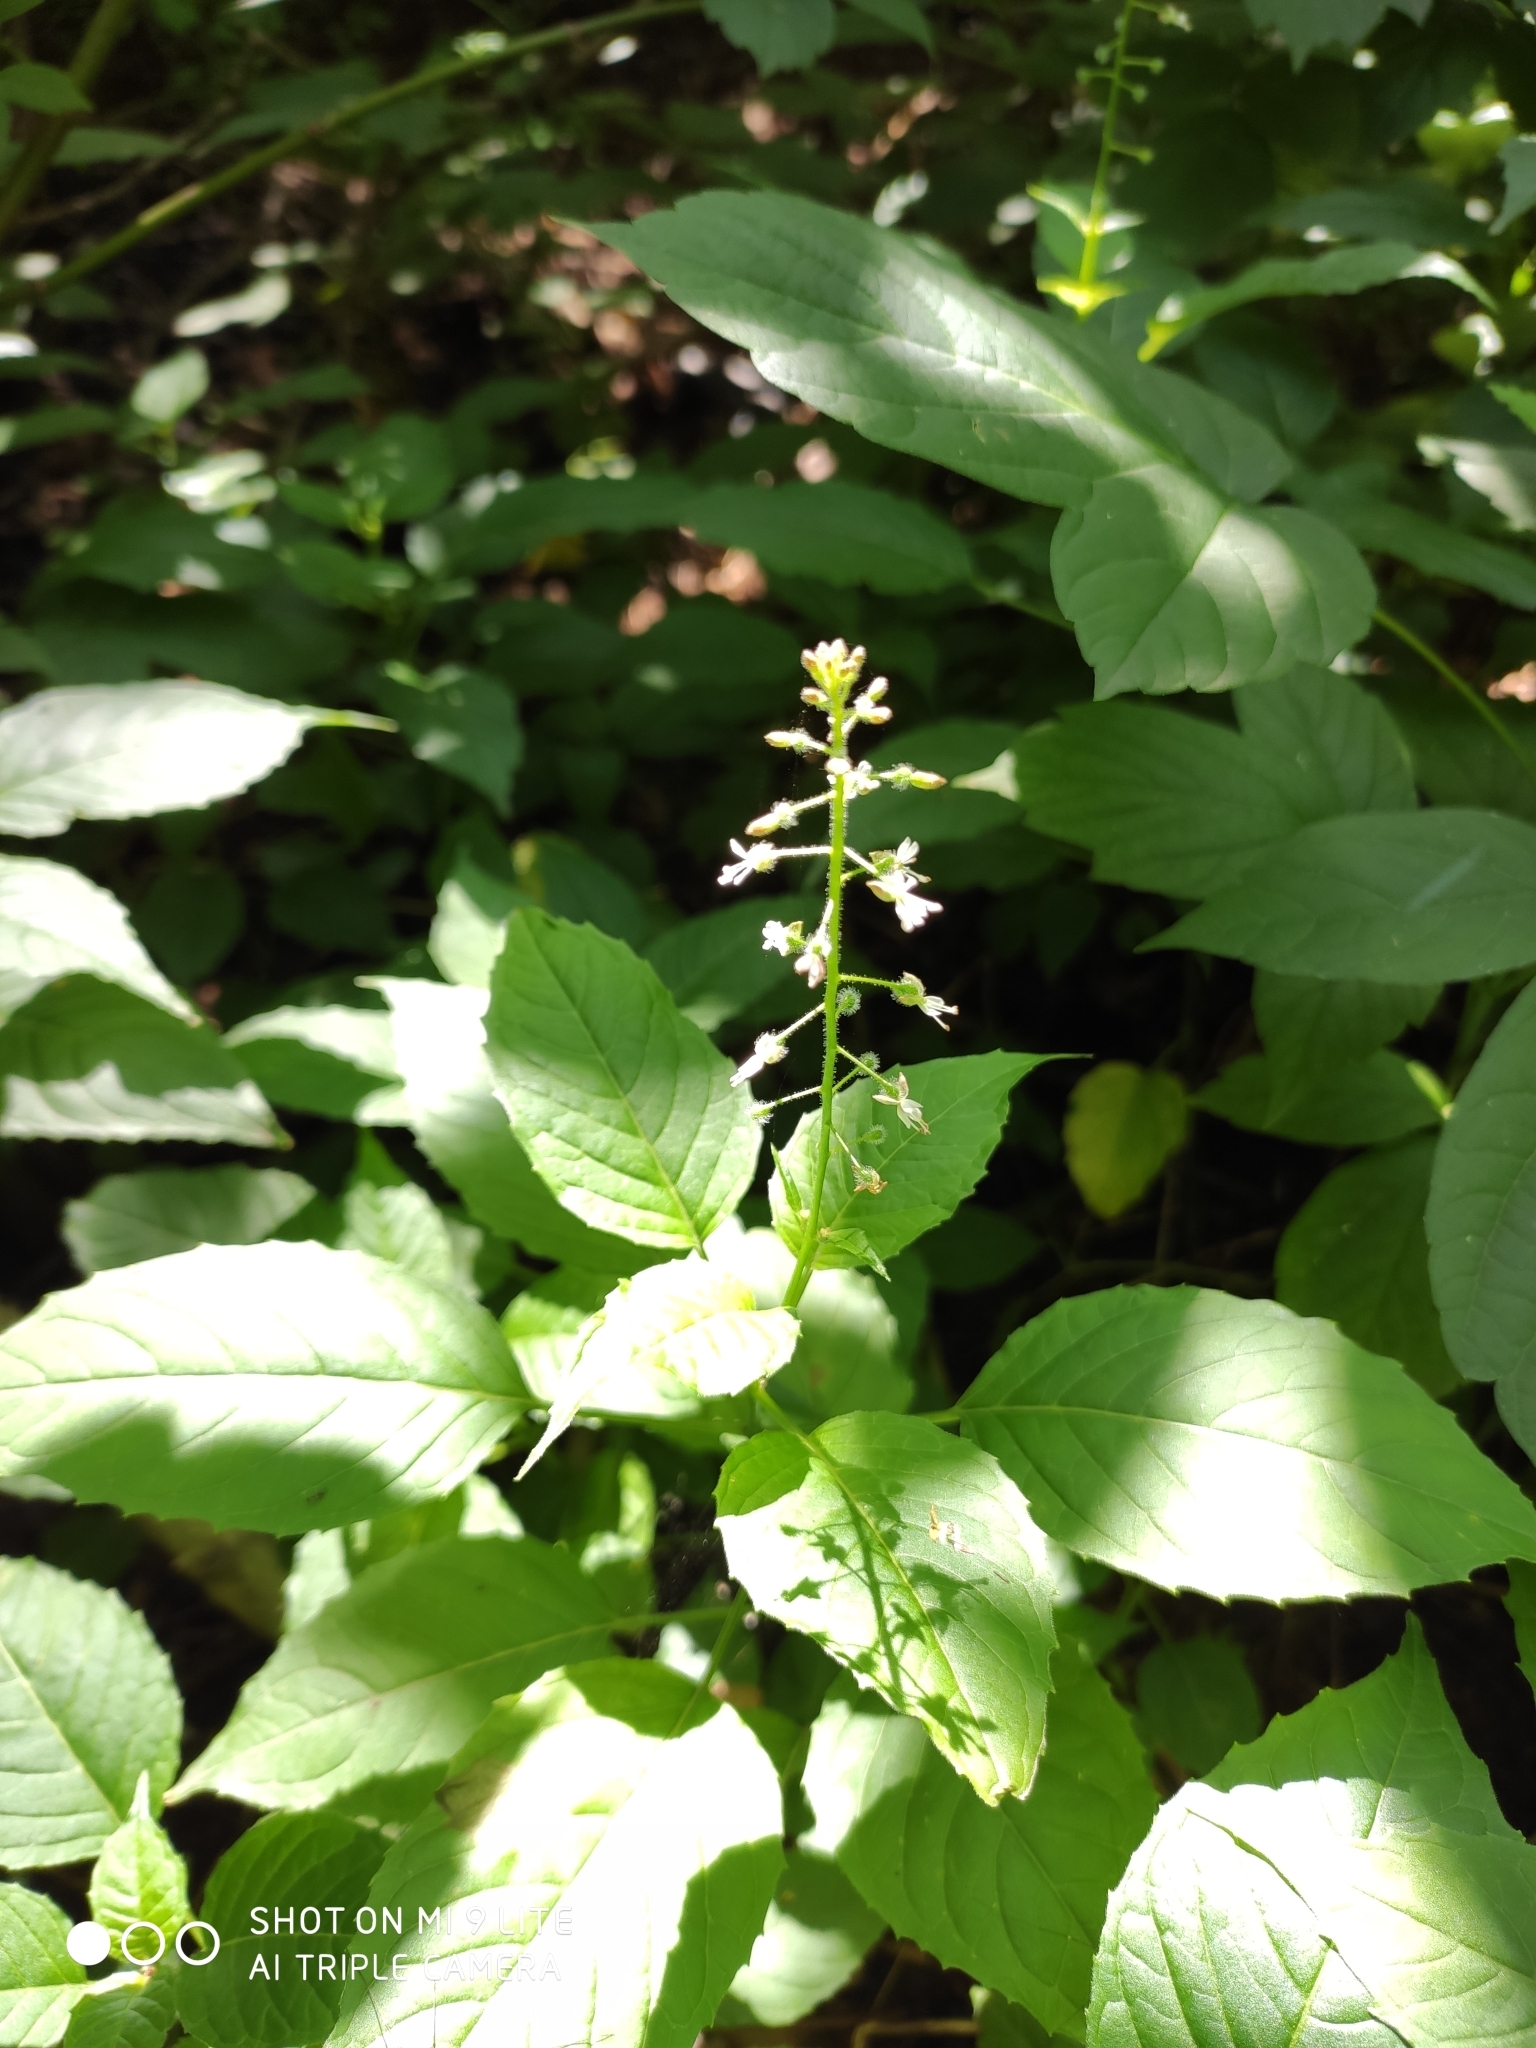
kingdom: Plantae
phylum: Tracheophyta
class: Magnoliopsida
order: Myrtales
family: Onagraceae
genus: Circaea
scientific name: Circaea canadensis
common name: Broad-leaved enchanter's nightshade
